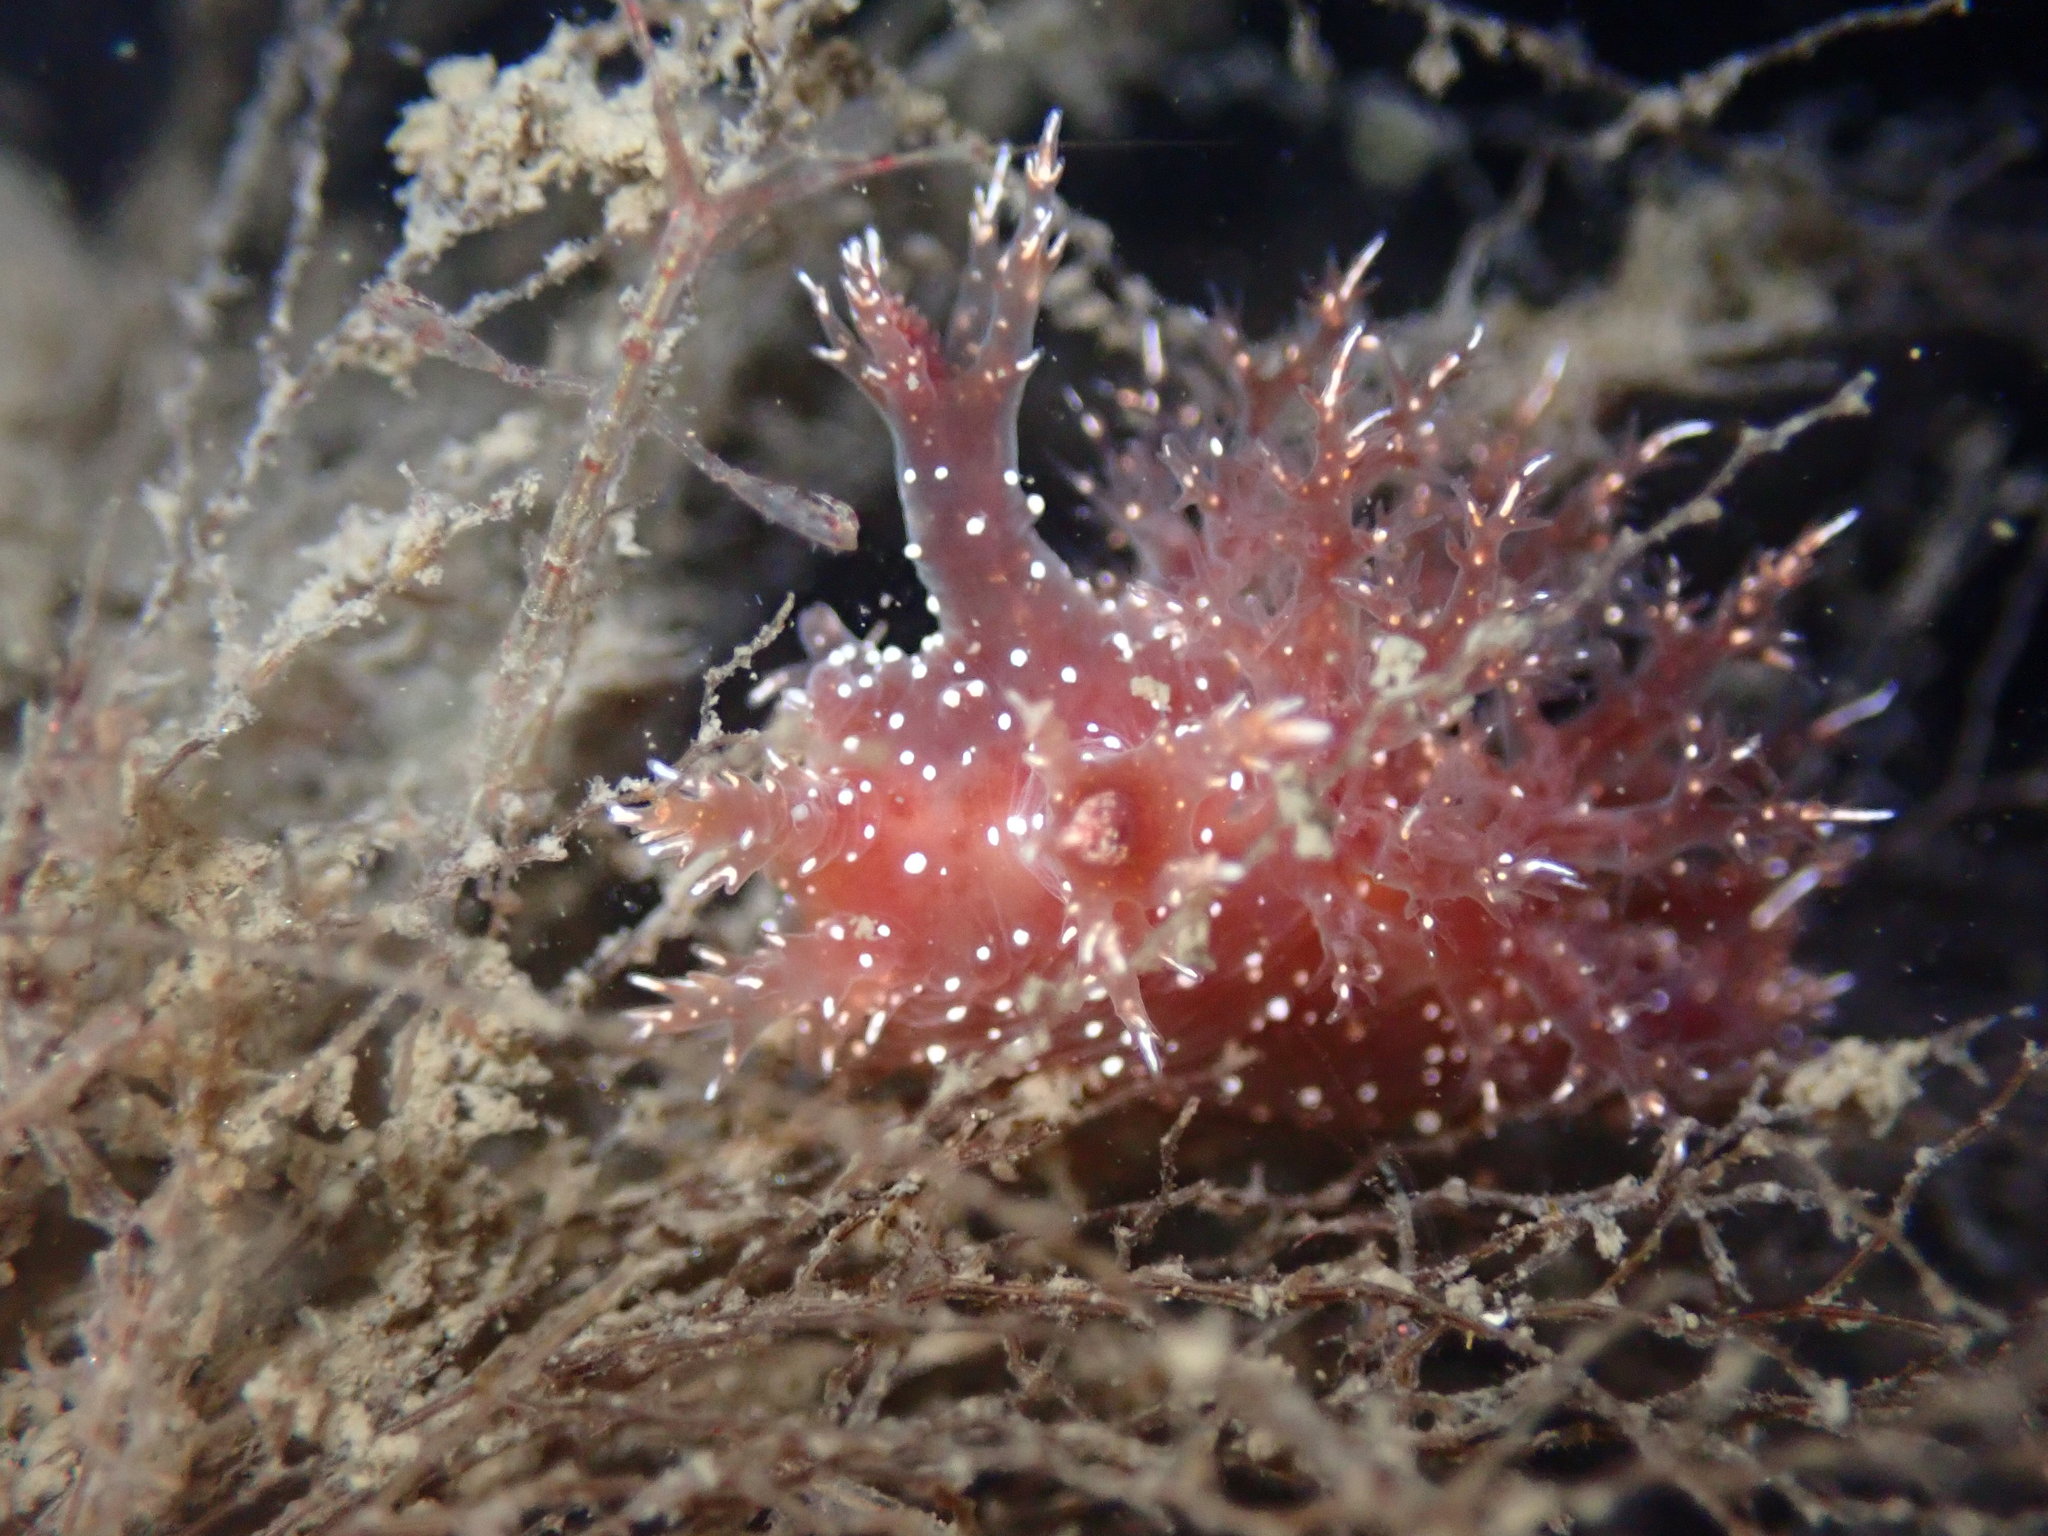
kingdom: Animalia
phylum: Mollusca
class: Gastropoda
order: Nudibranchia
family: Dendronotidae
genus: Dendronotus
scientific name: Dendronotus venustus
